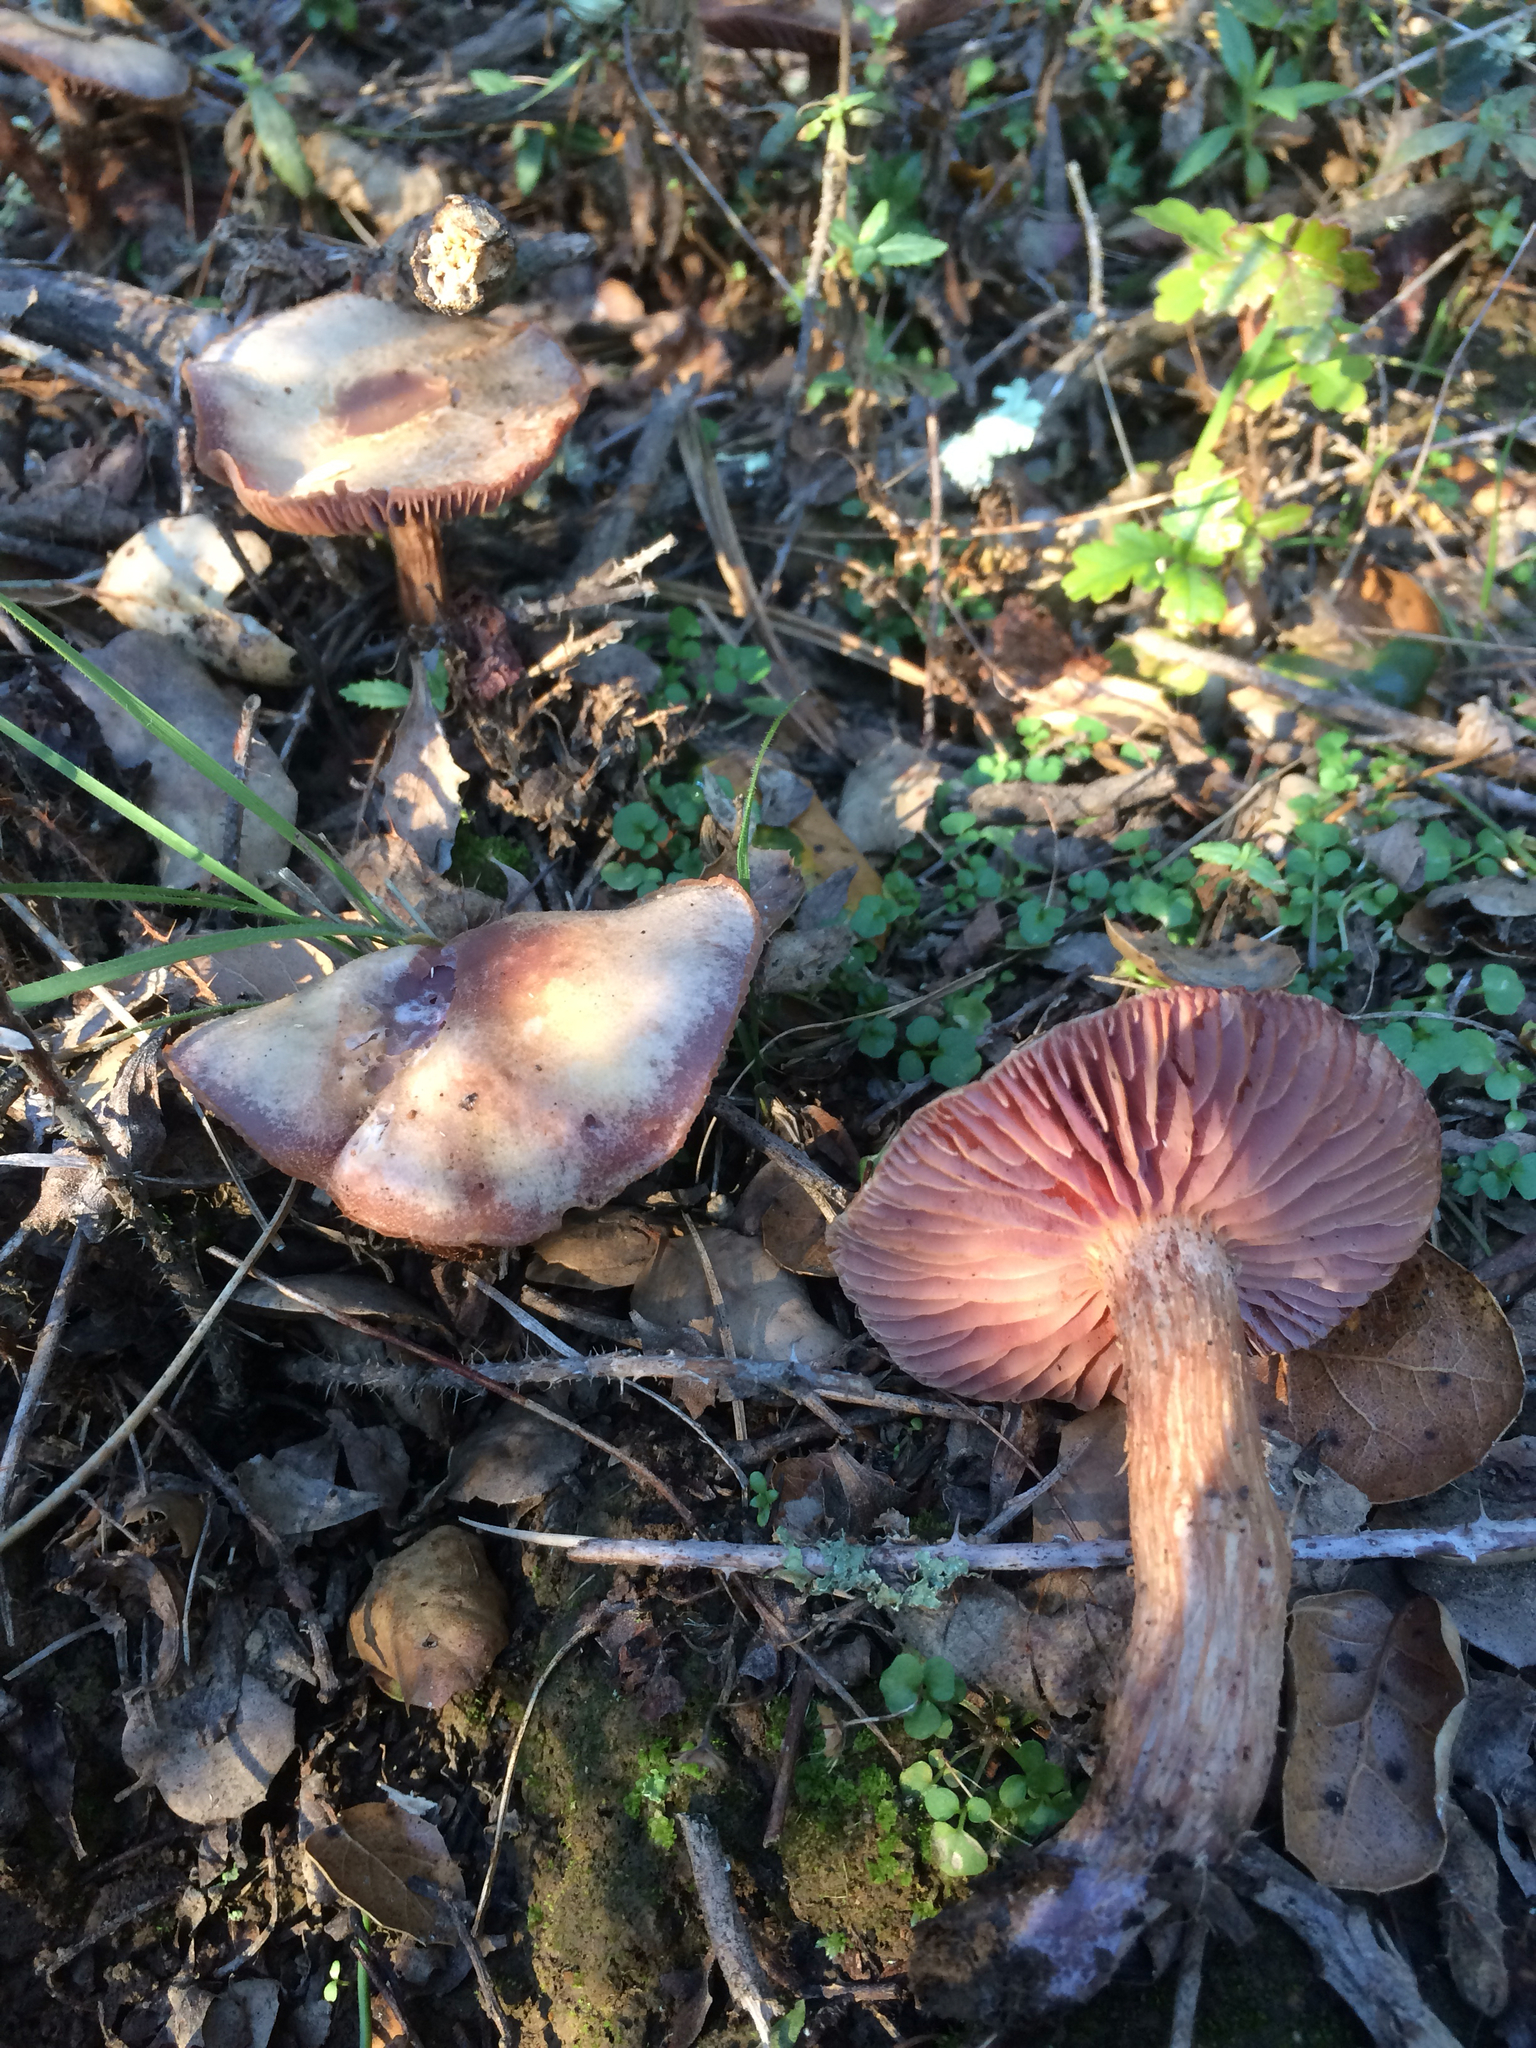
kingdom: Fungi
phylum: Basidiomycota
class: Agaricomycetes
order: Agaricales
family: Hydnangiaceae
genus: Laccaria
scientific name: Laccaria amethysteo-occidentalis
